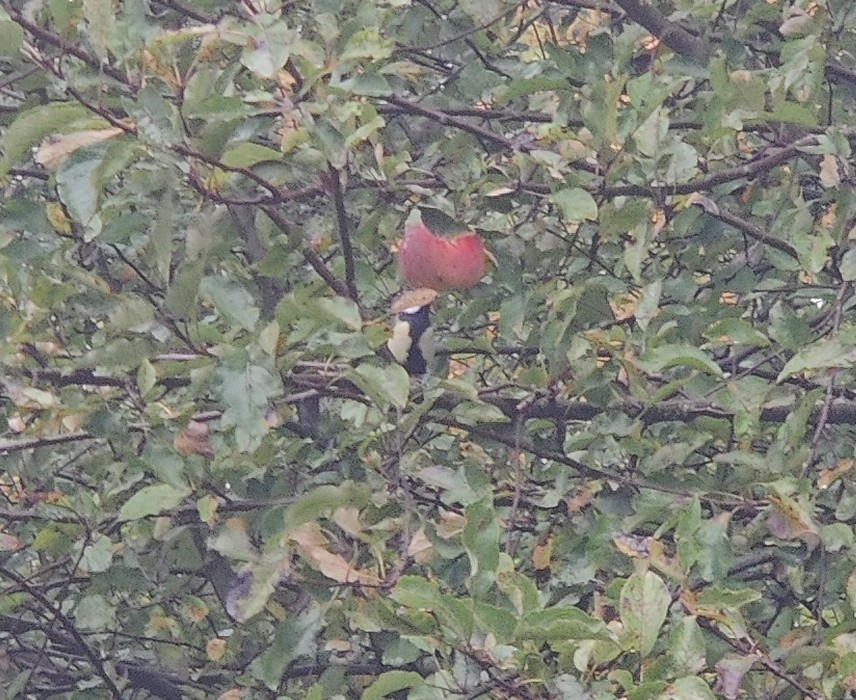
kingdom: Animalia
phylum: Chordata
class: Aves
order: Passeriformes
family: Paridae
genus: Parus
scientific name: Parus major
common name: Great tit
